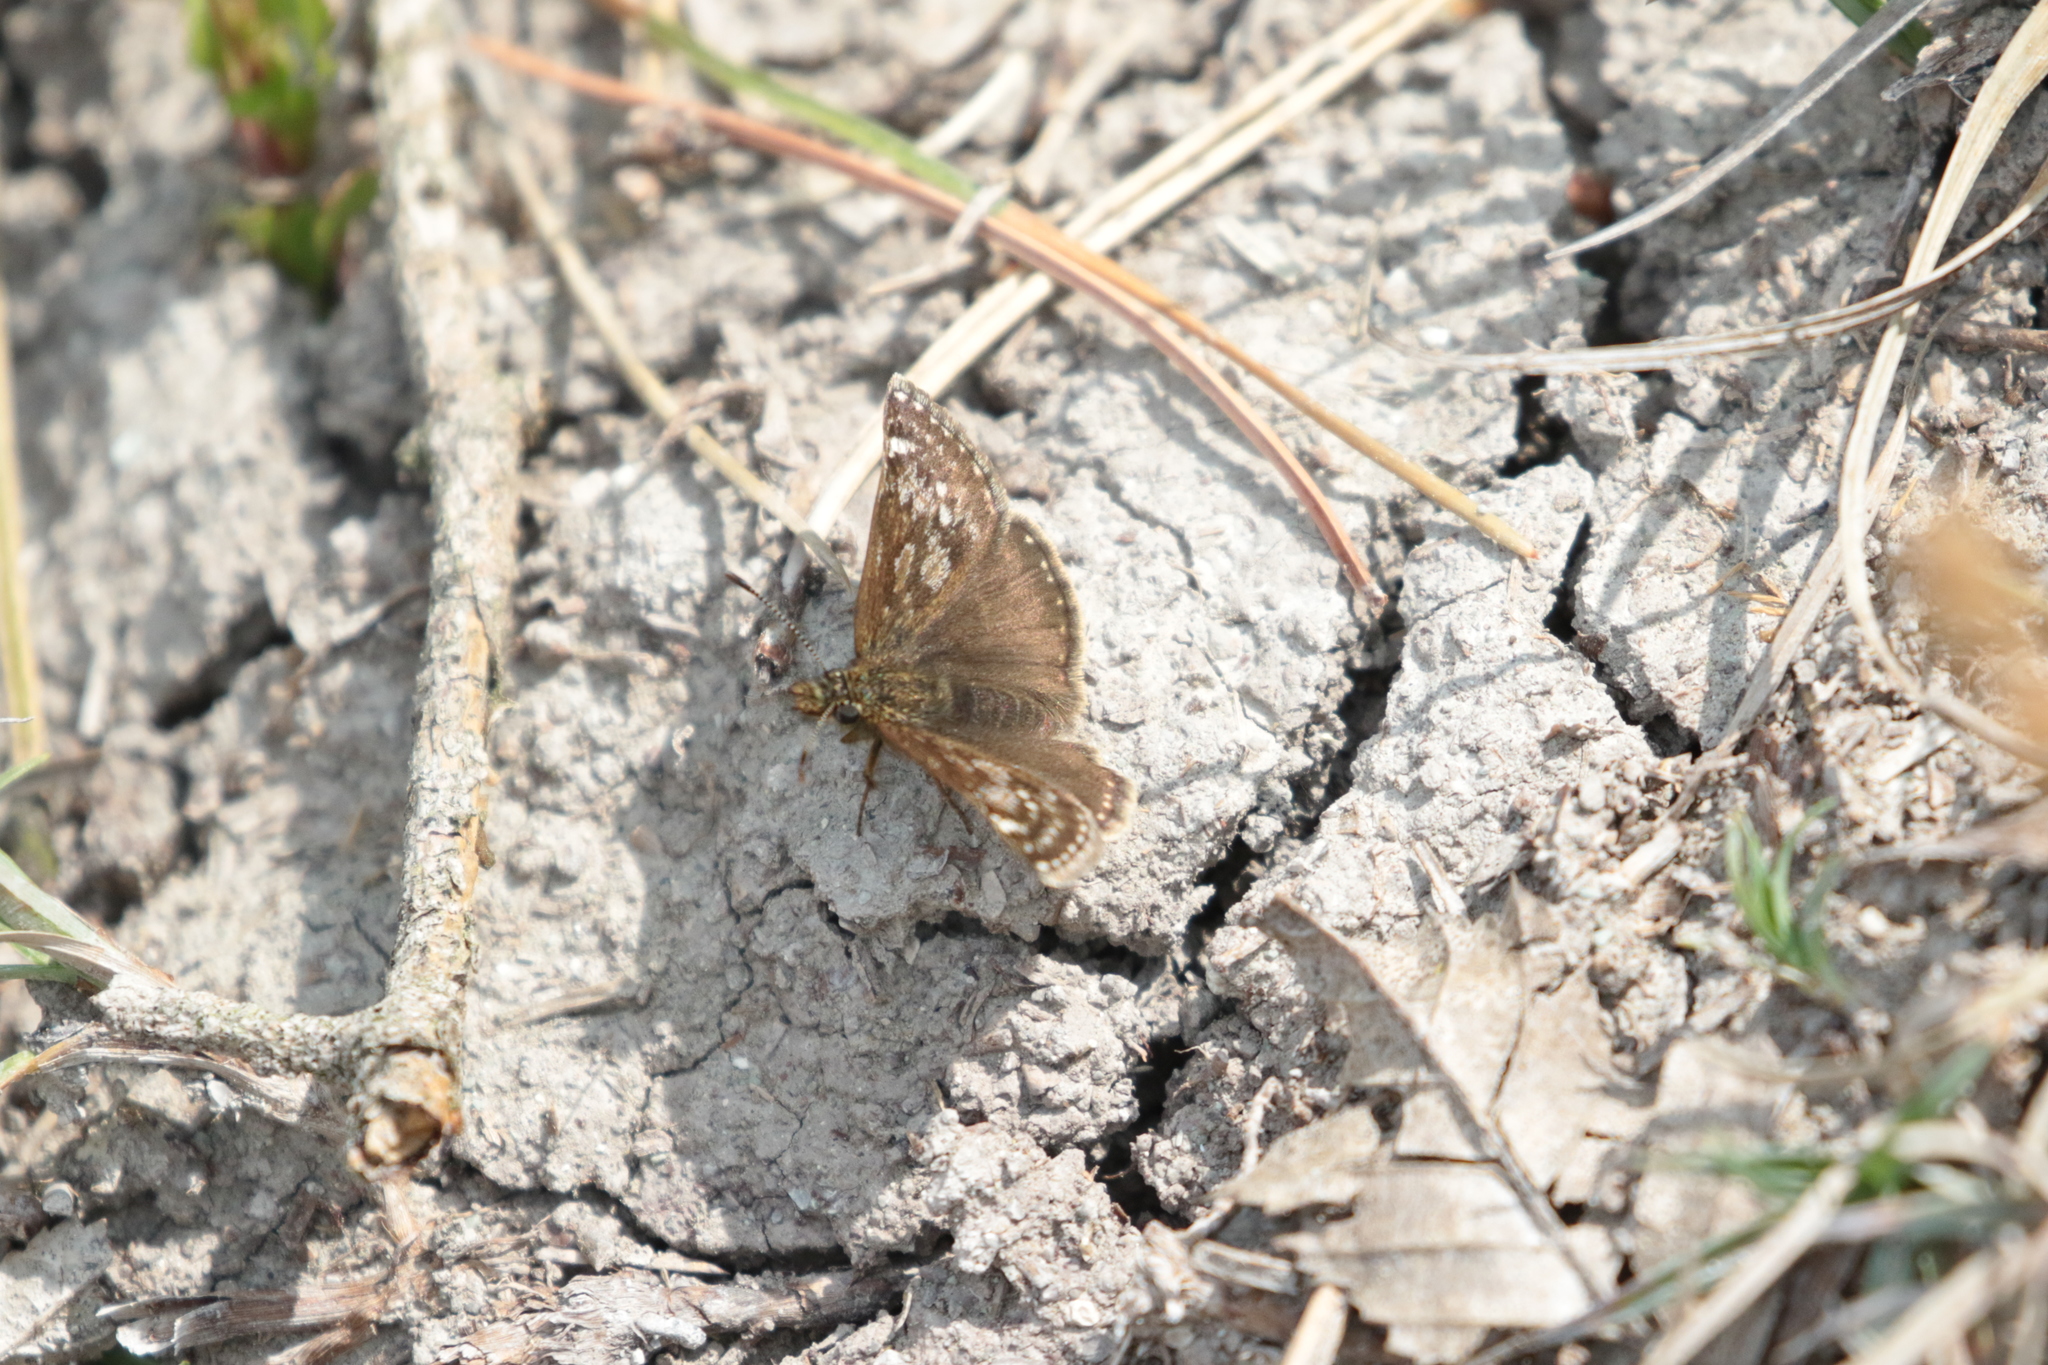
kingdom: Animalia
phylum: Arthropoda
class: Insecta
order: Lepidoptera
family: Hesperiidae
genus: Erynnis
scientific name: Erynnis tages
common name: Dingy skipper
